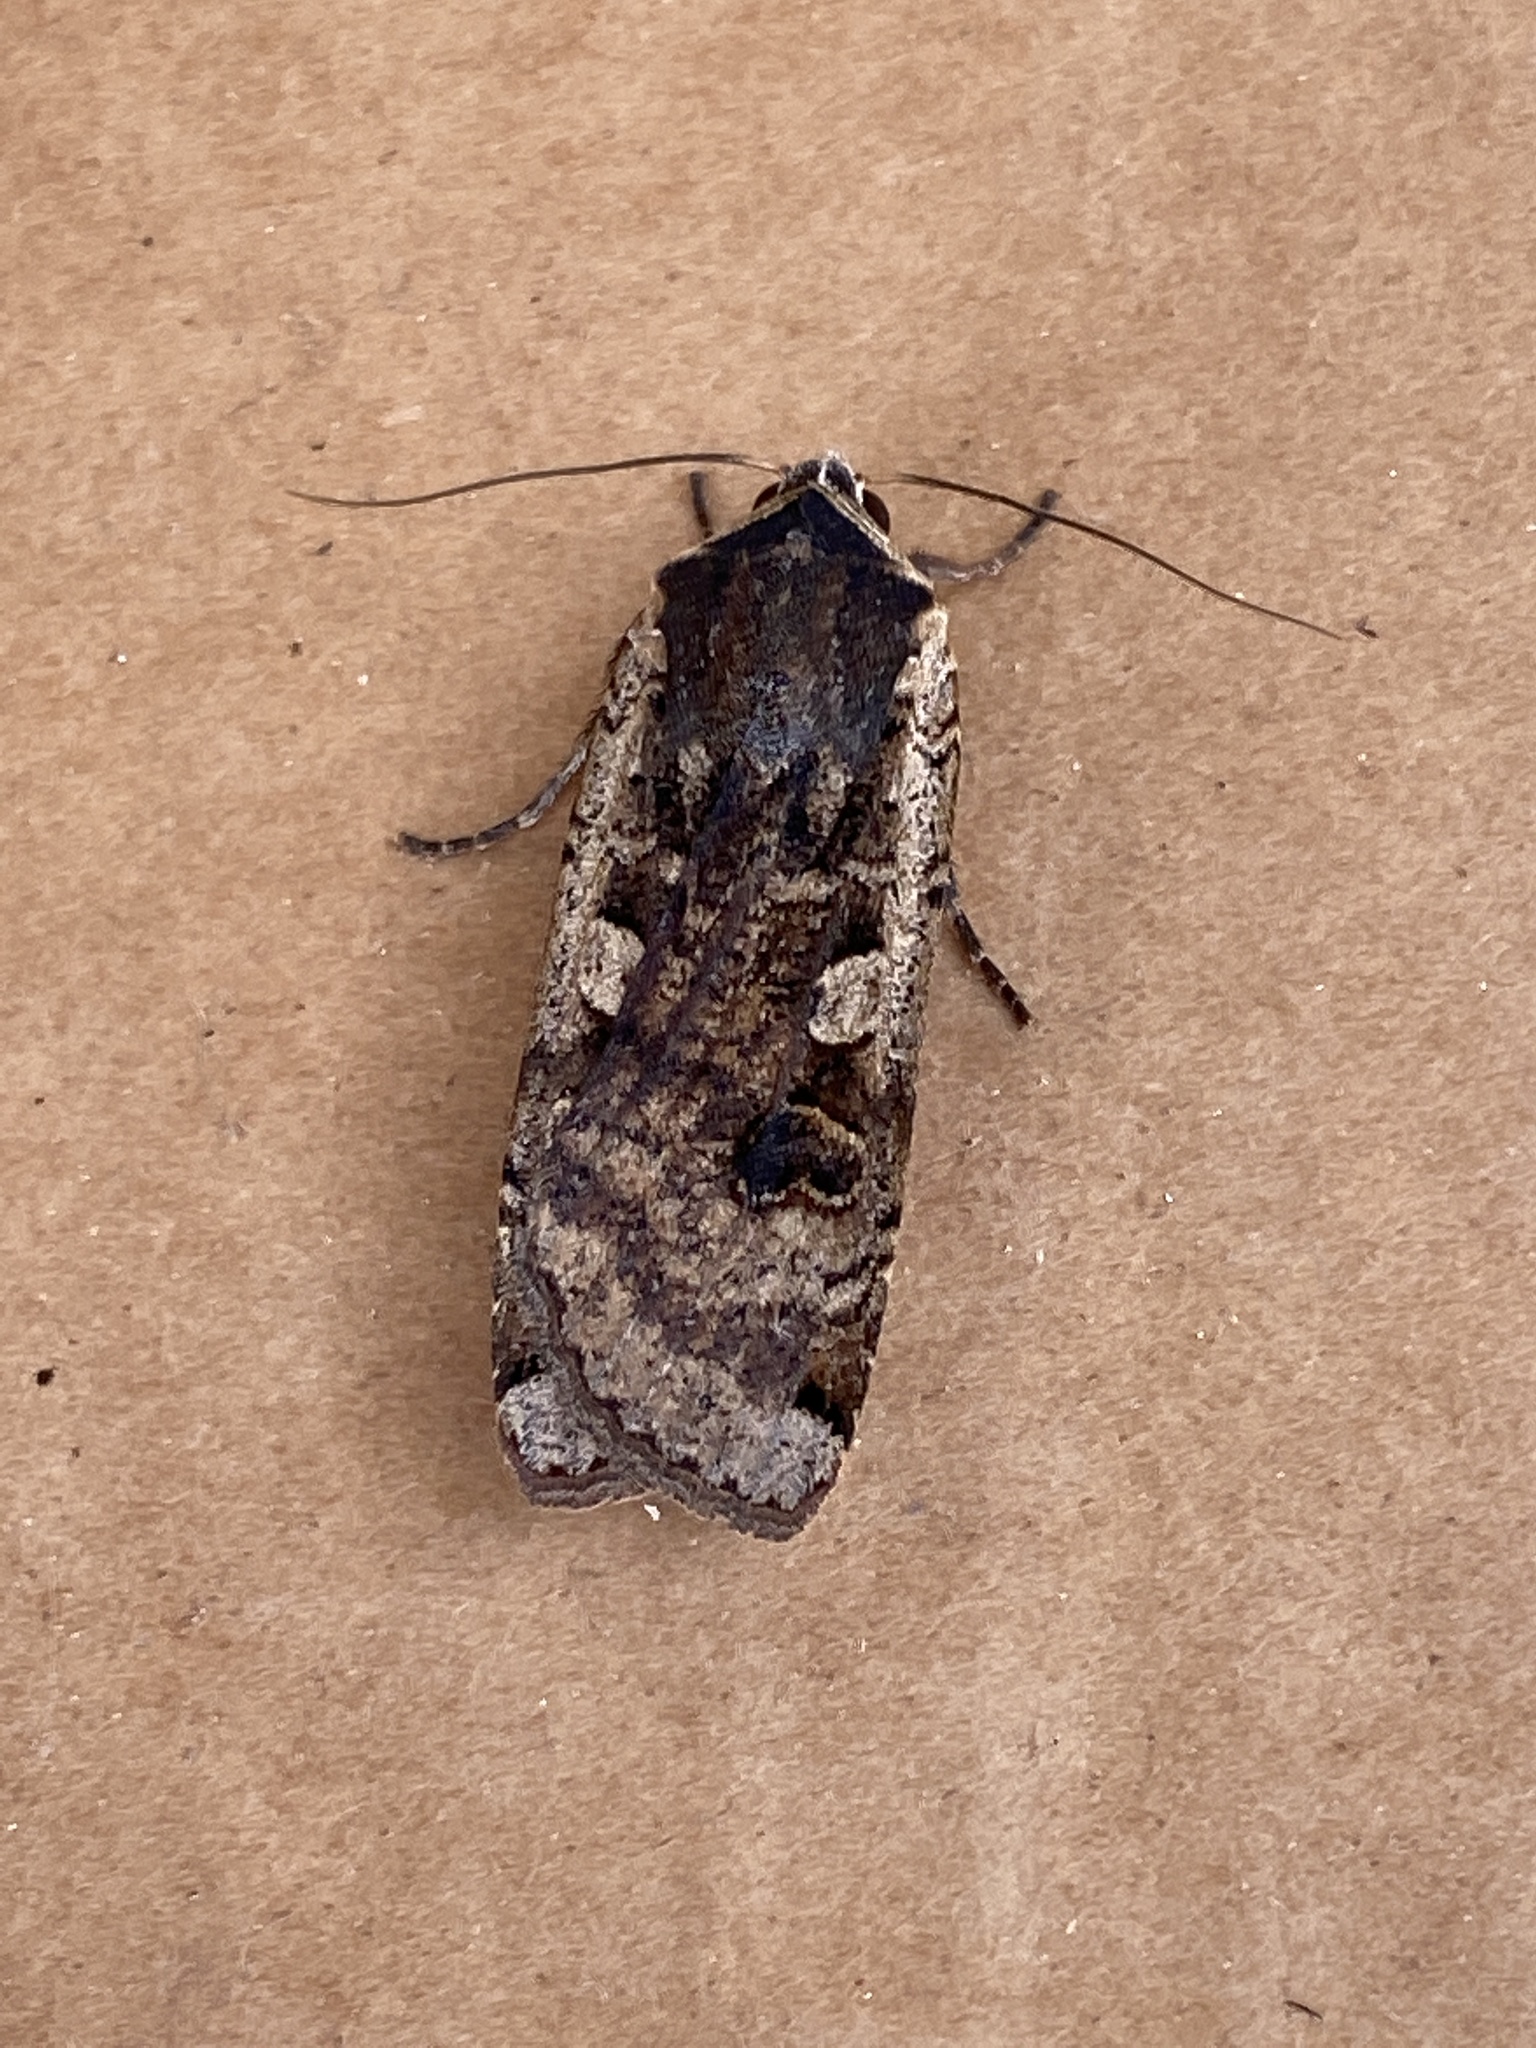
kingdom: Animalia
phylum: Arthropoda
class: Insecta
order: Lepidoptera
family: Noctuidae
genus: Noctua
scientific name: Noctua pronuba
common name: Large yellow underwing
